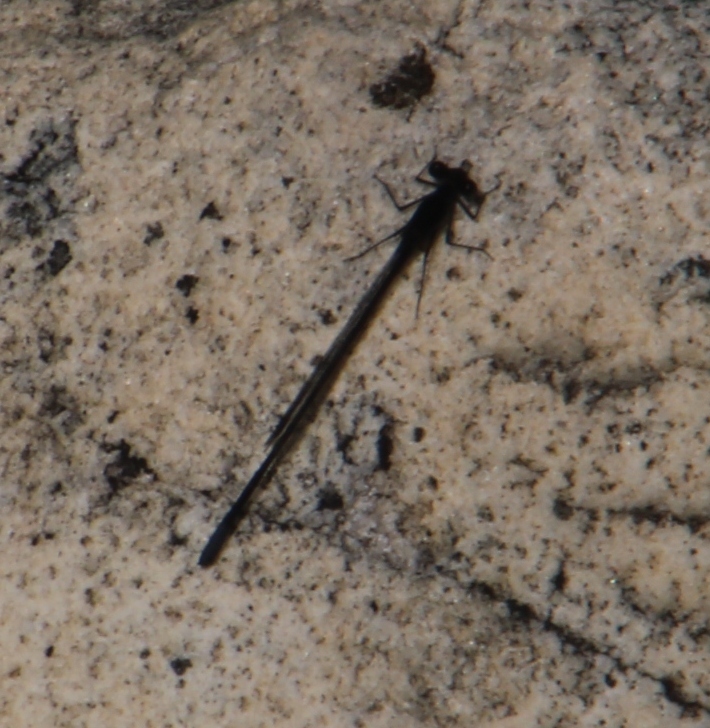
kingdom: Animalia
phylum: Arthropoda
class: Insecta
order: Odonata
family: Platycnemididae
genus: Elattoneura
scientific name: Elattoneura frenulata
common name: Sooty threadtail
